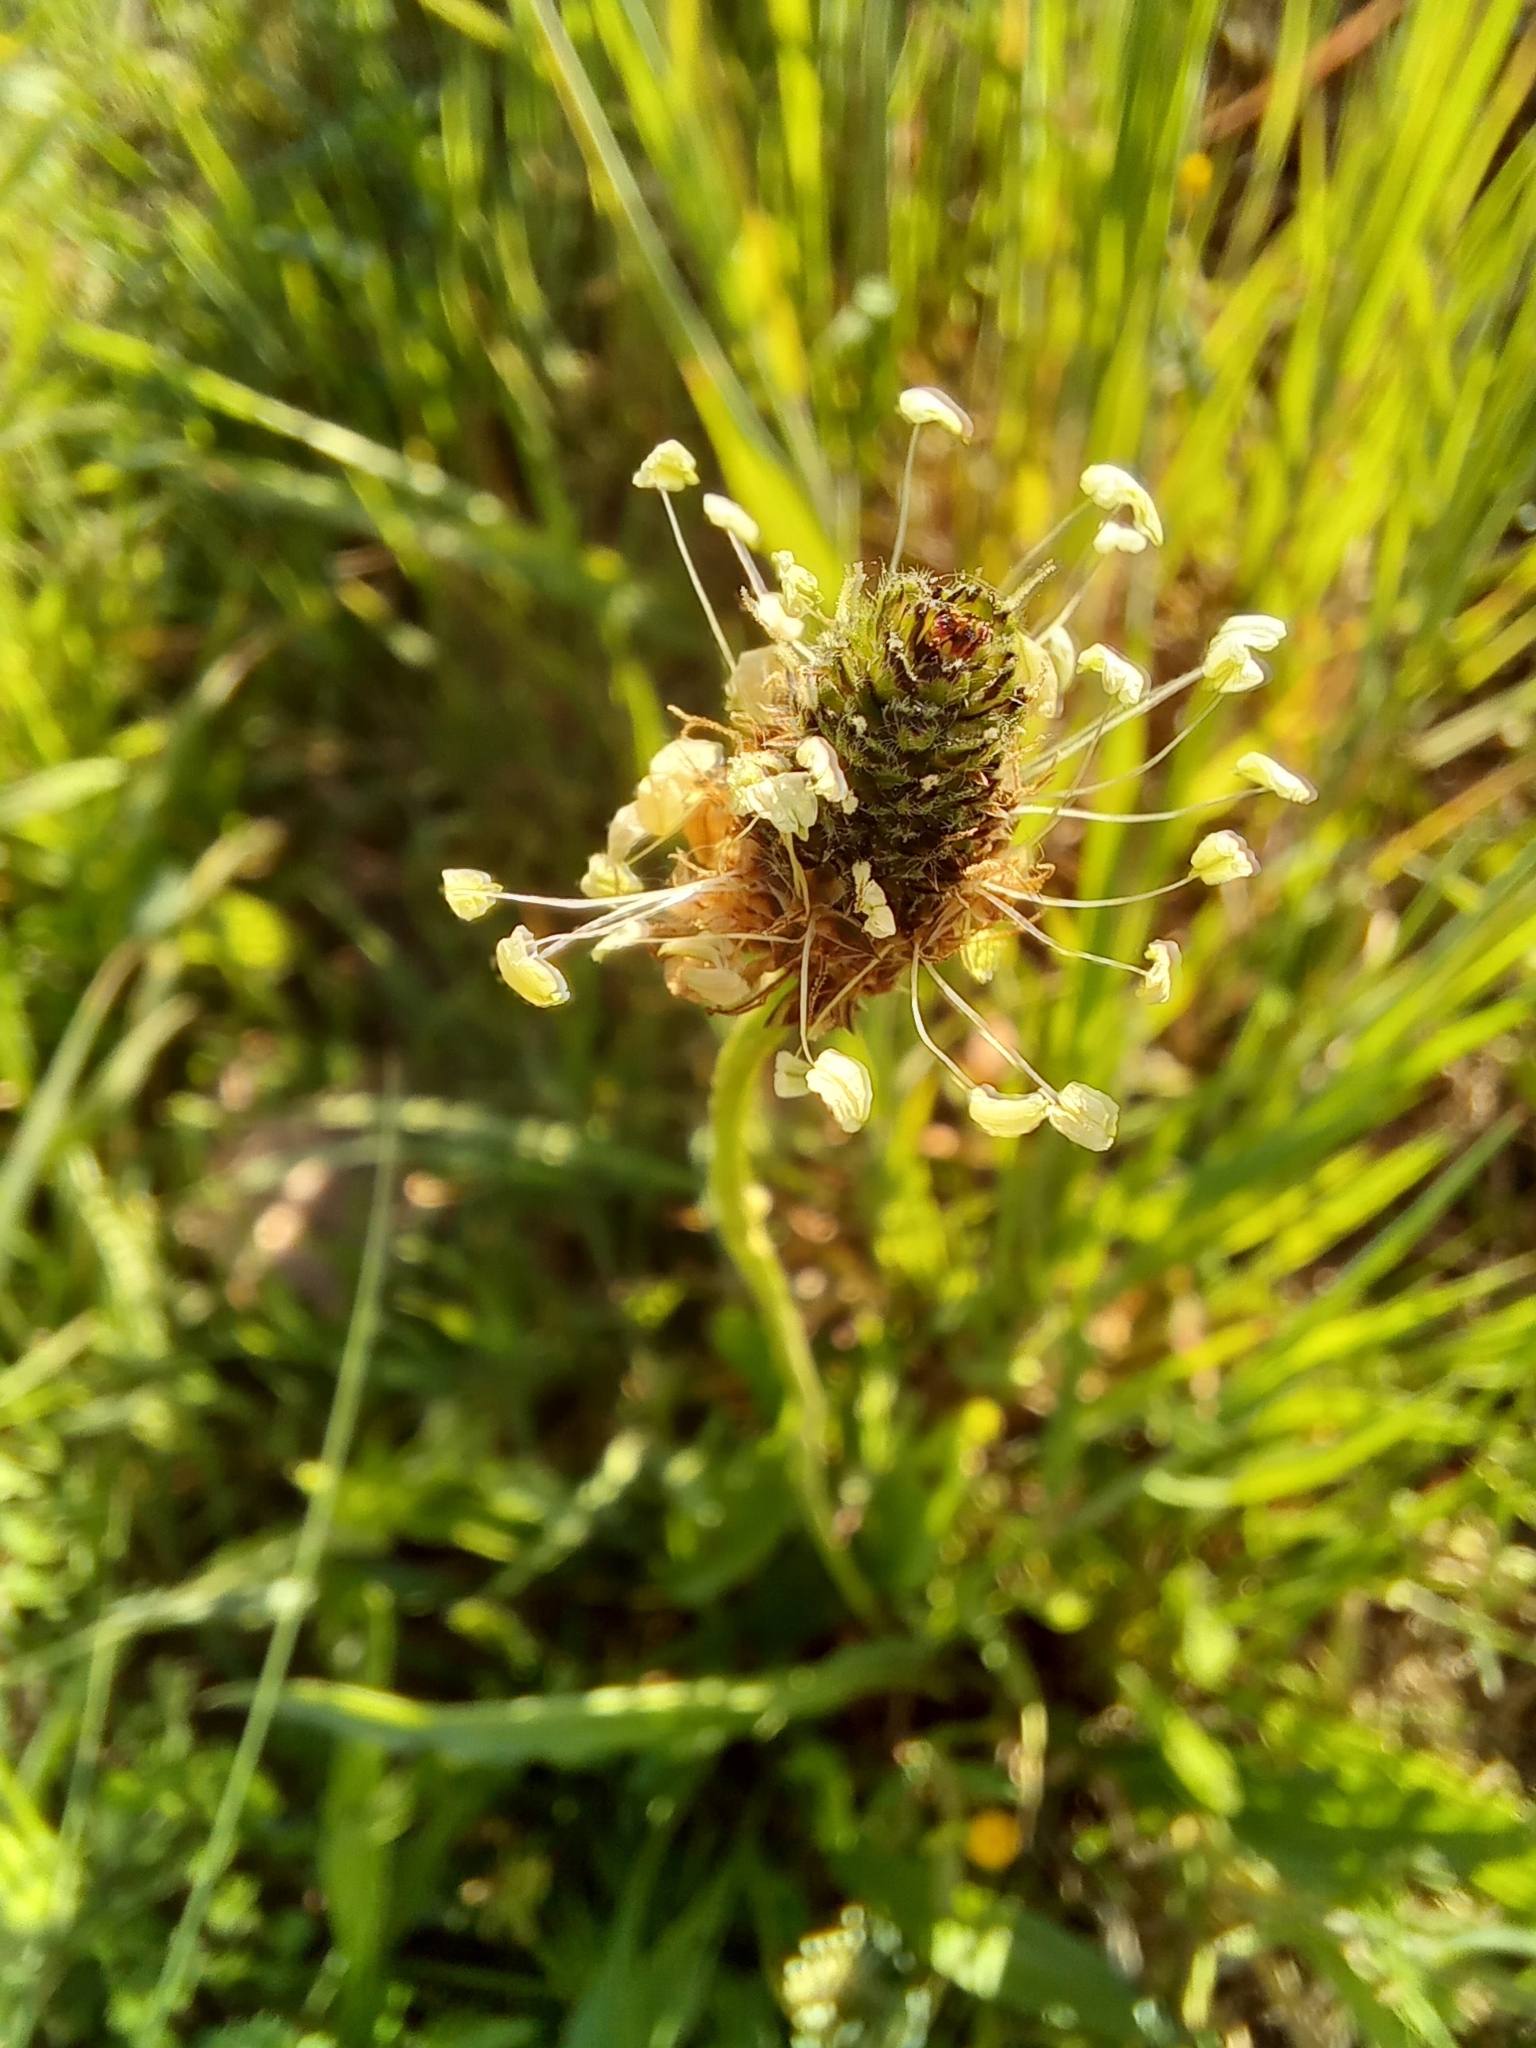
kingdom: Plantae
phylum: Tracheophyta
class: Magnoliopsida
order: Lamiales
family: Plantaginaceae
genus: Plantago
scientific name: Plantago lanceolata
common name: Ribwort plantain
